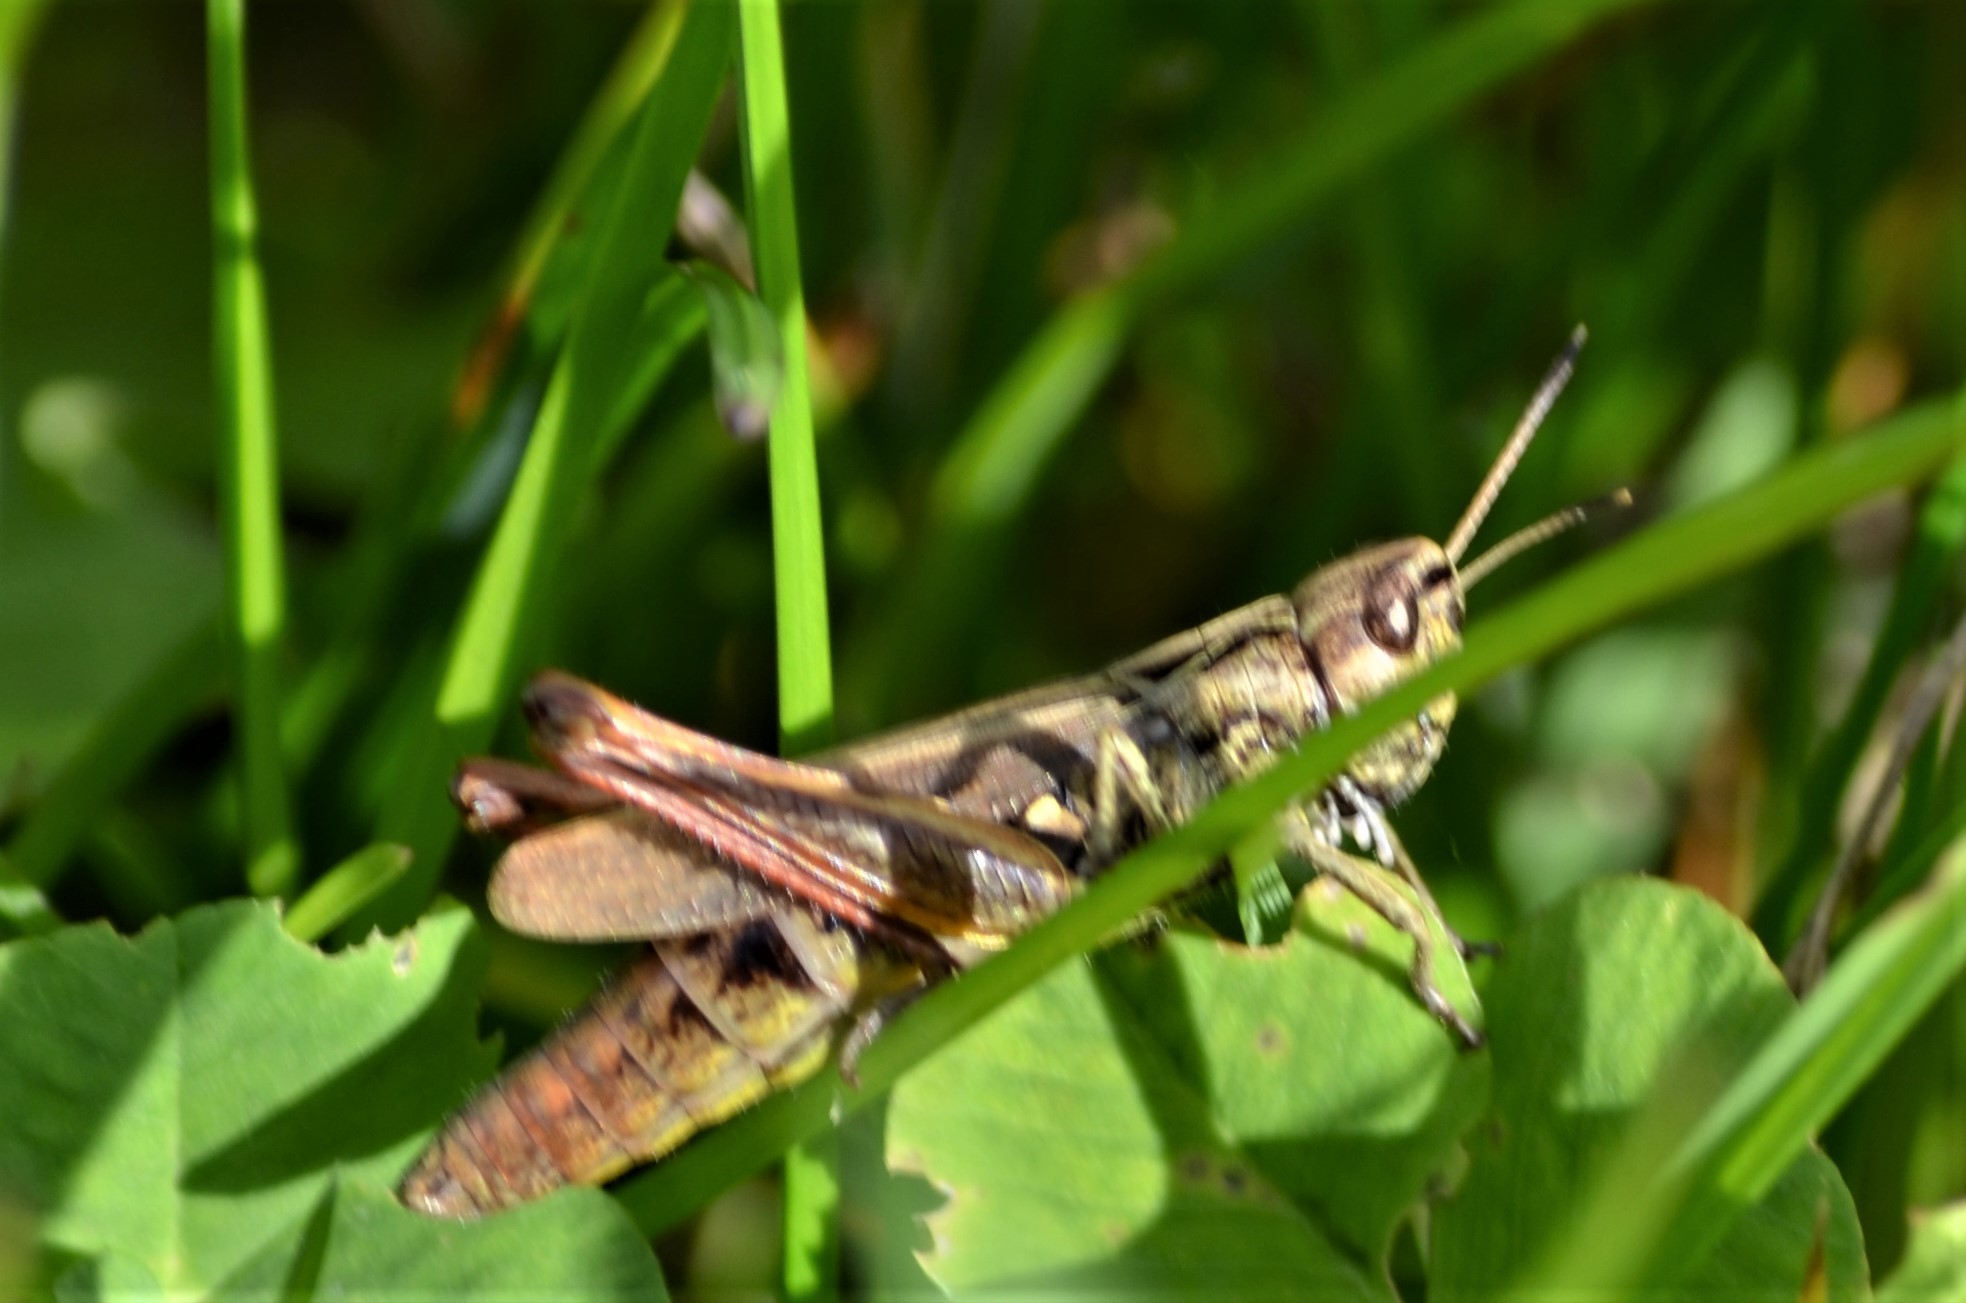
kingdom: Animalia
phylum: Arthropoda
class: Insecta
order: Orthoptera
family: Acrididae
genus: Gomphocerippus
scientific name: Gomphocerippus rufus
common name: Rufous grasshopper
